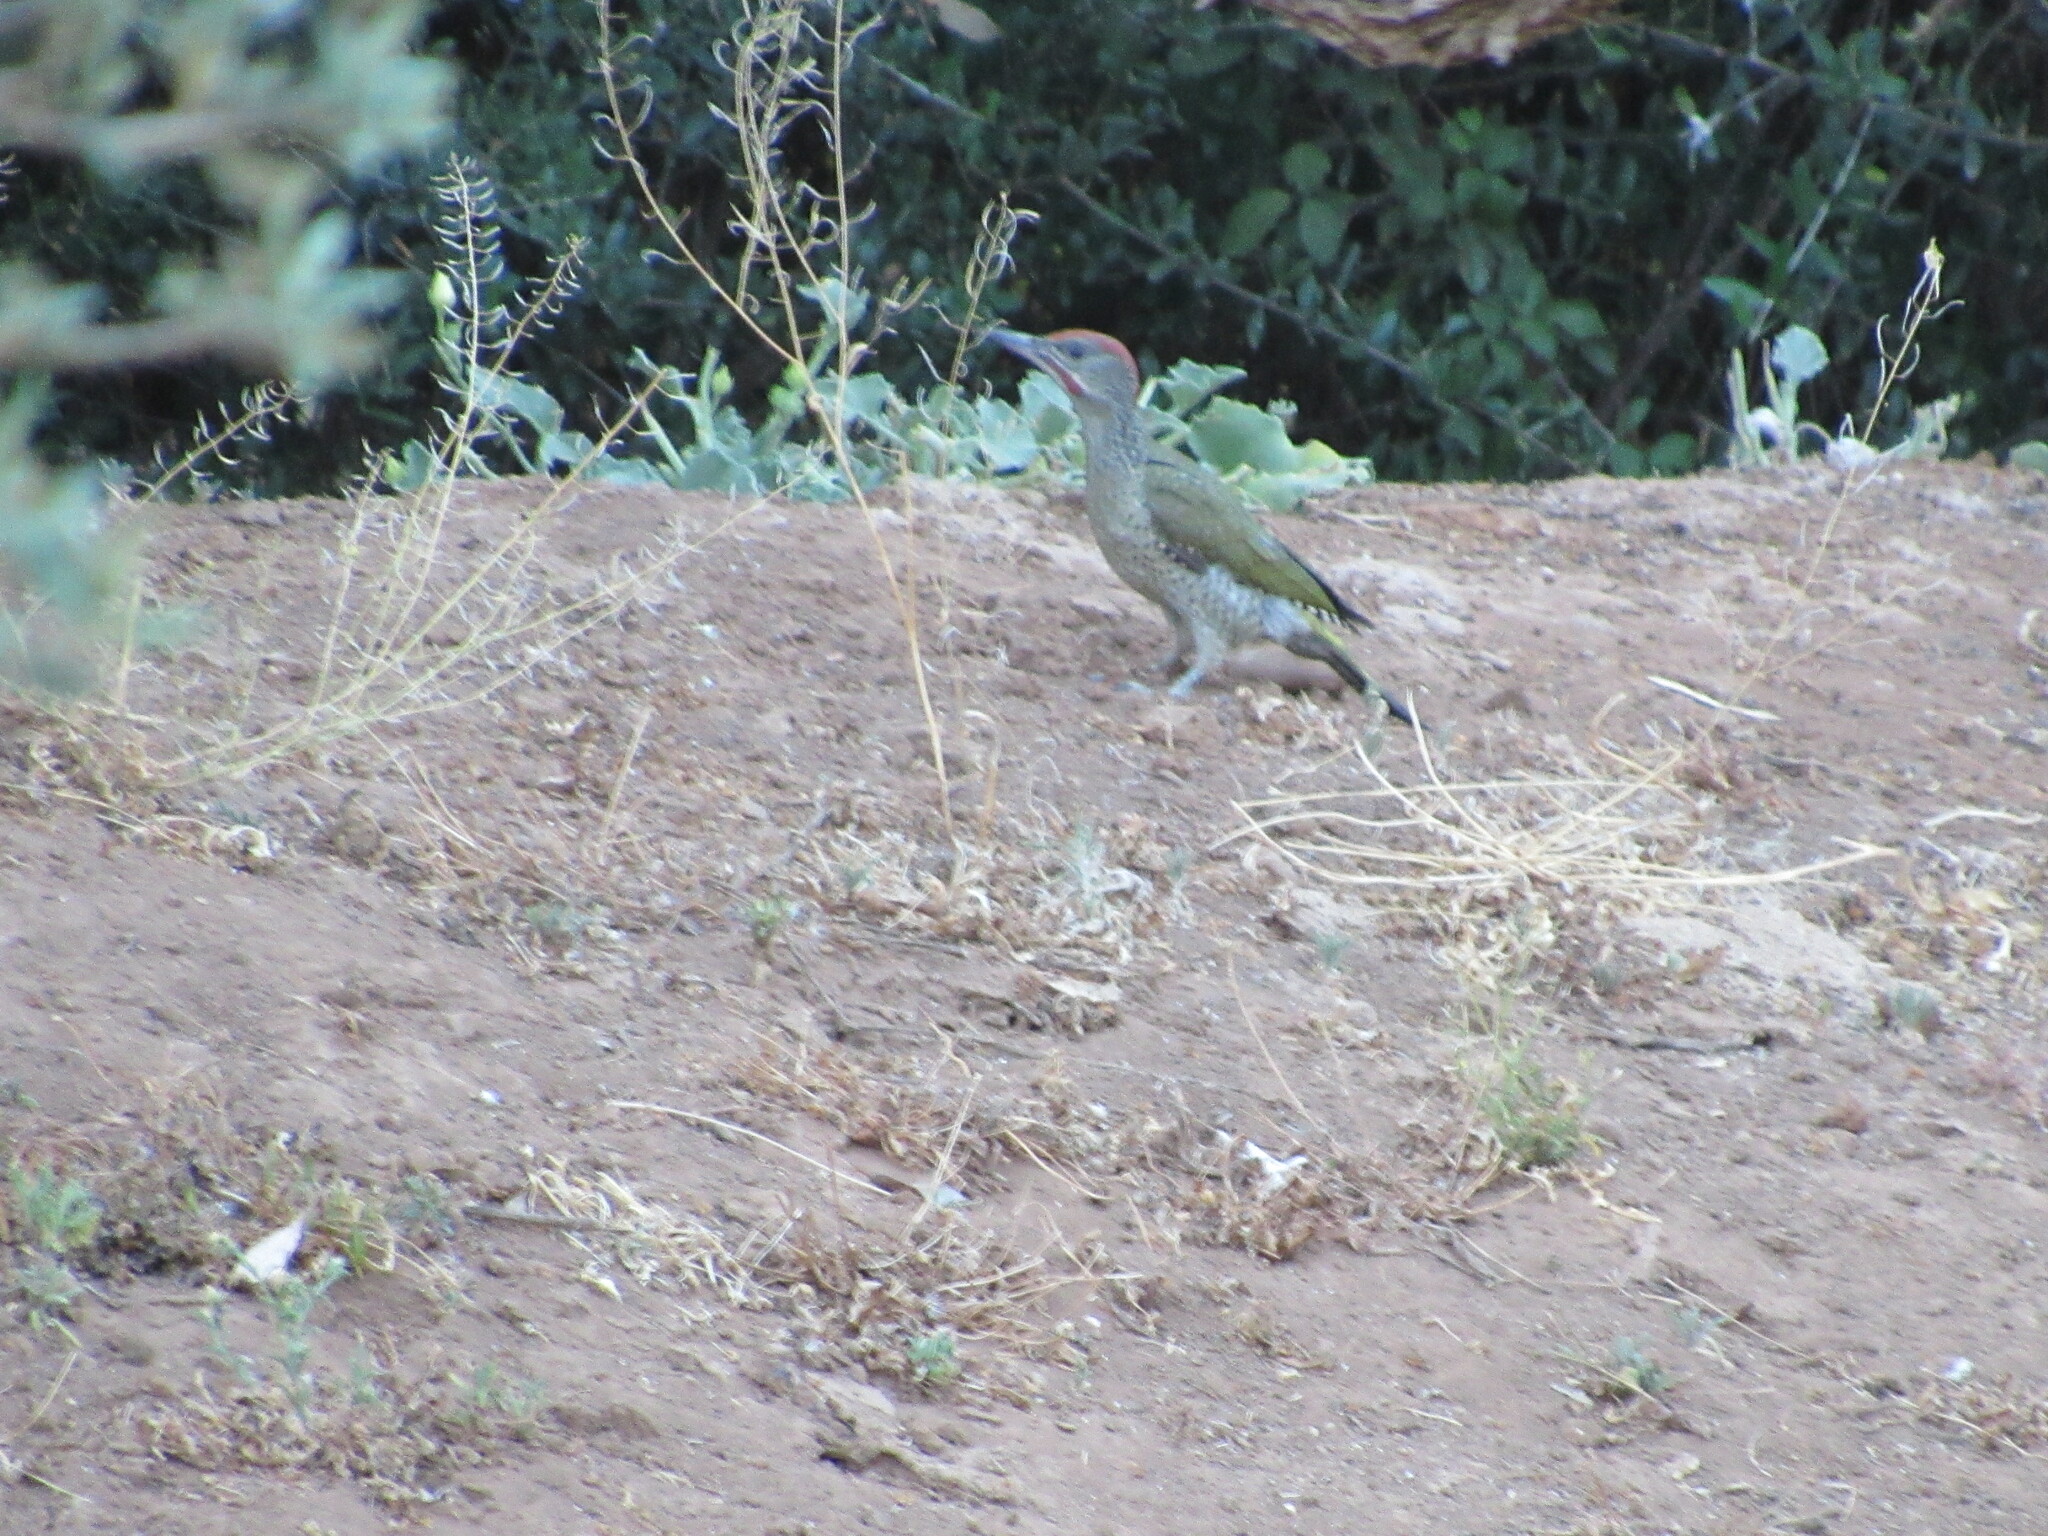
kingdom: Animalia
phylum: Chordata
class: Aves
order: Piciformes
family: Picidae
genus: Picus
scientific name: Picus sharpei
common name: Iberian green woodpecker
